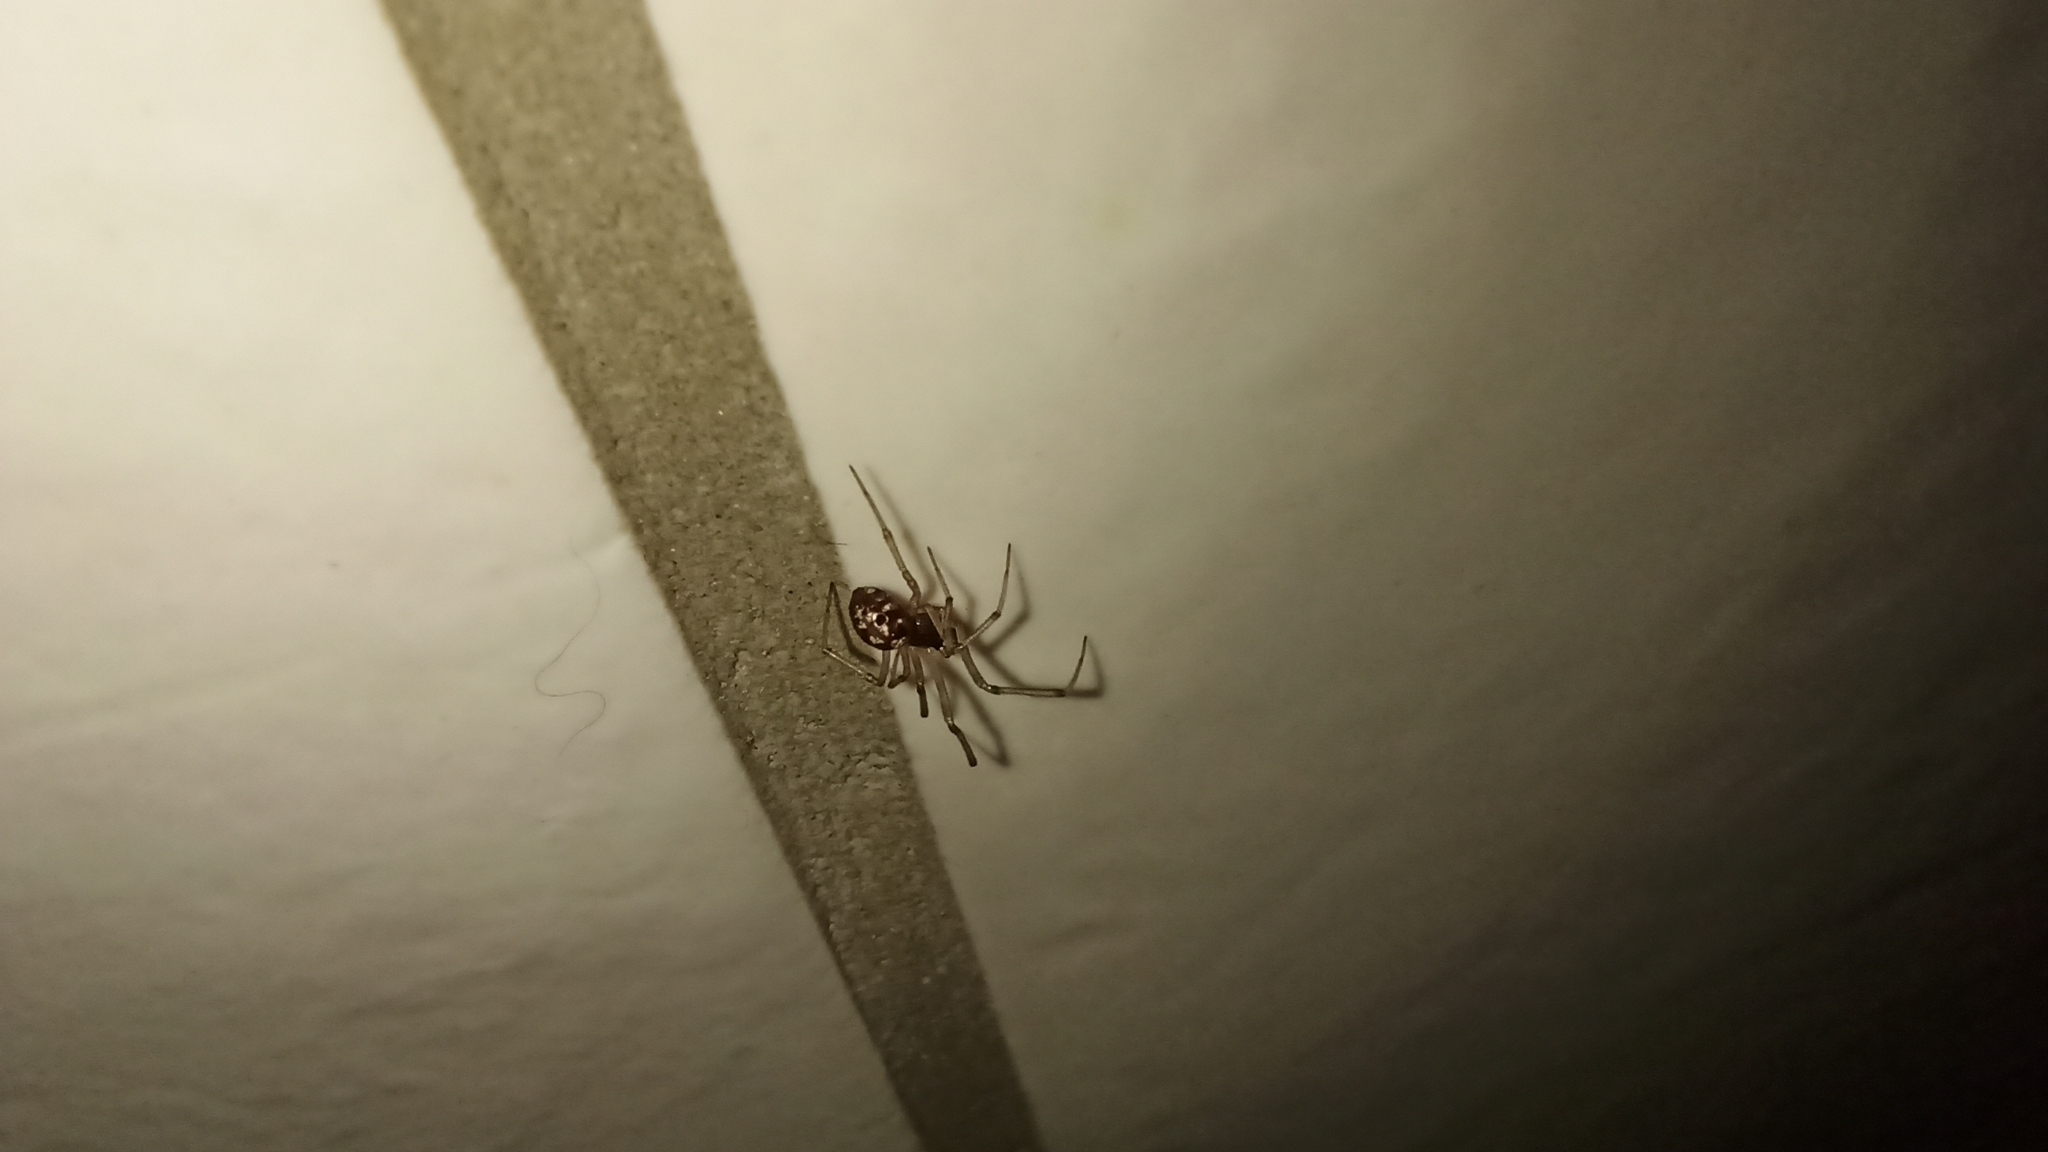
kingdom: Animalia
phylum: Arthropoda
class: Arachnida
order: Araneae
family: Theridiidae
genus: Steatoda
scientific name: Steatoda triangulosa
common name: Triangulate bud spider
